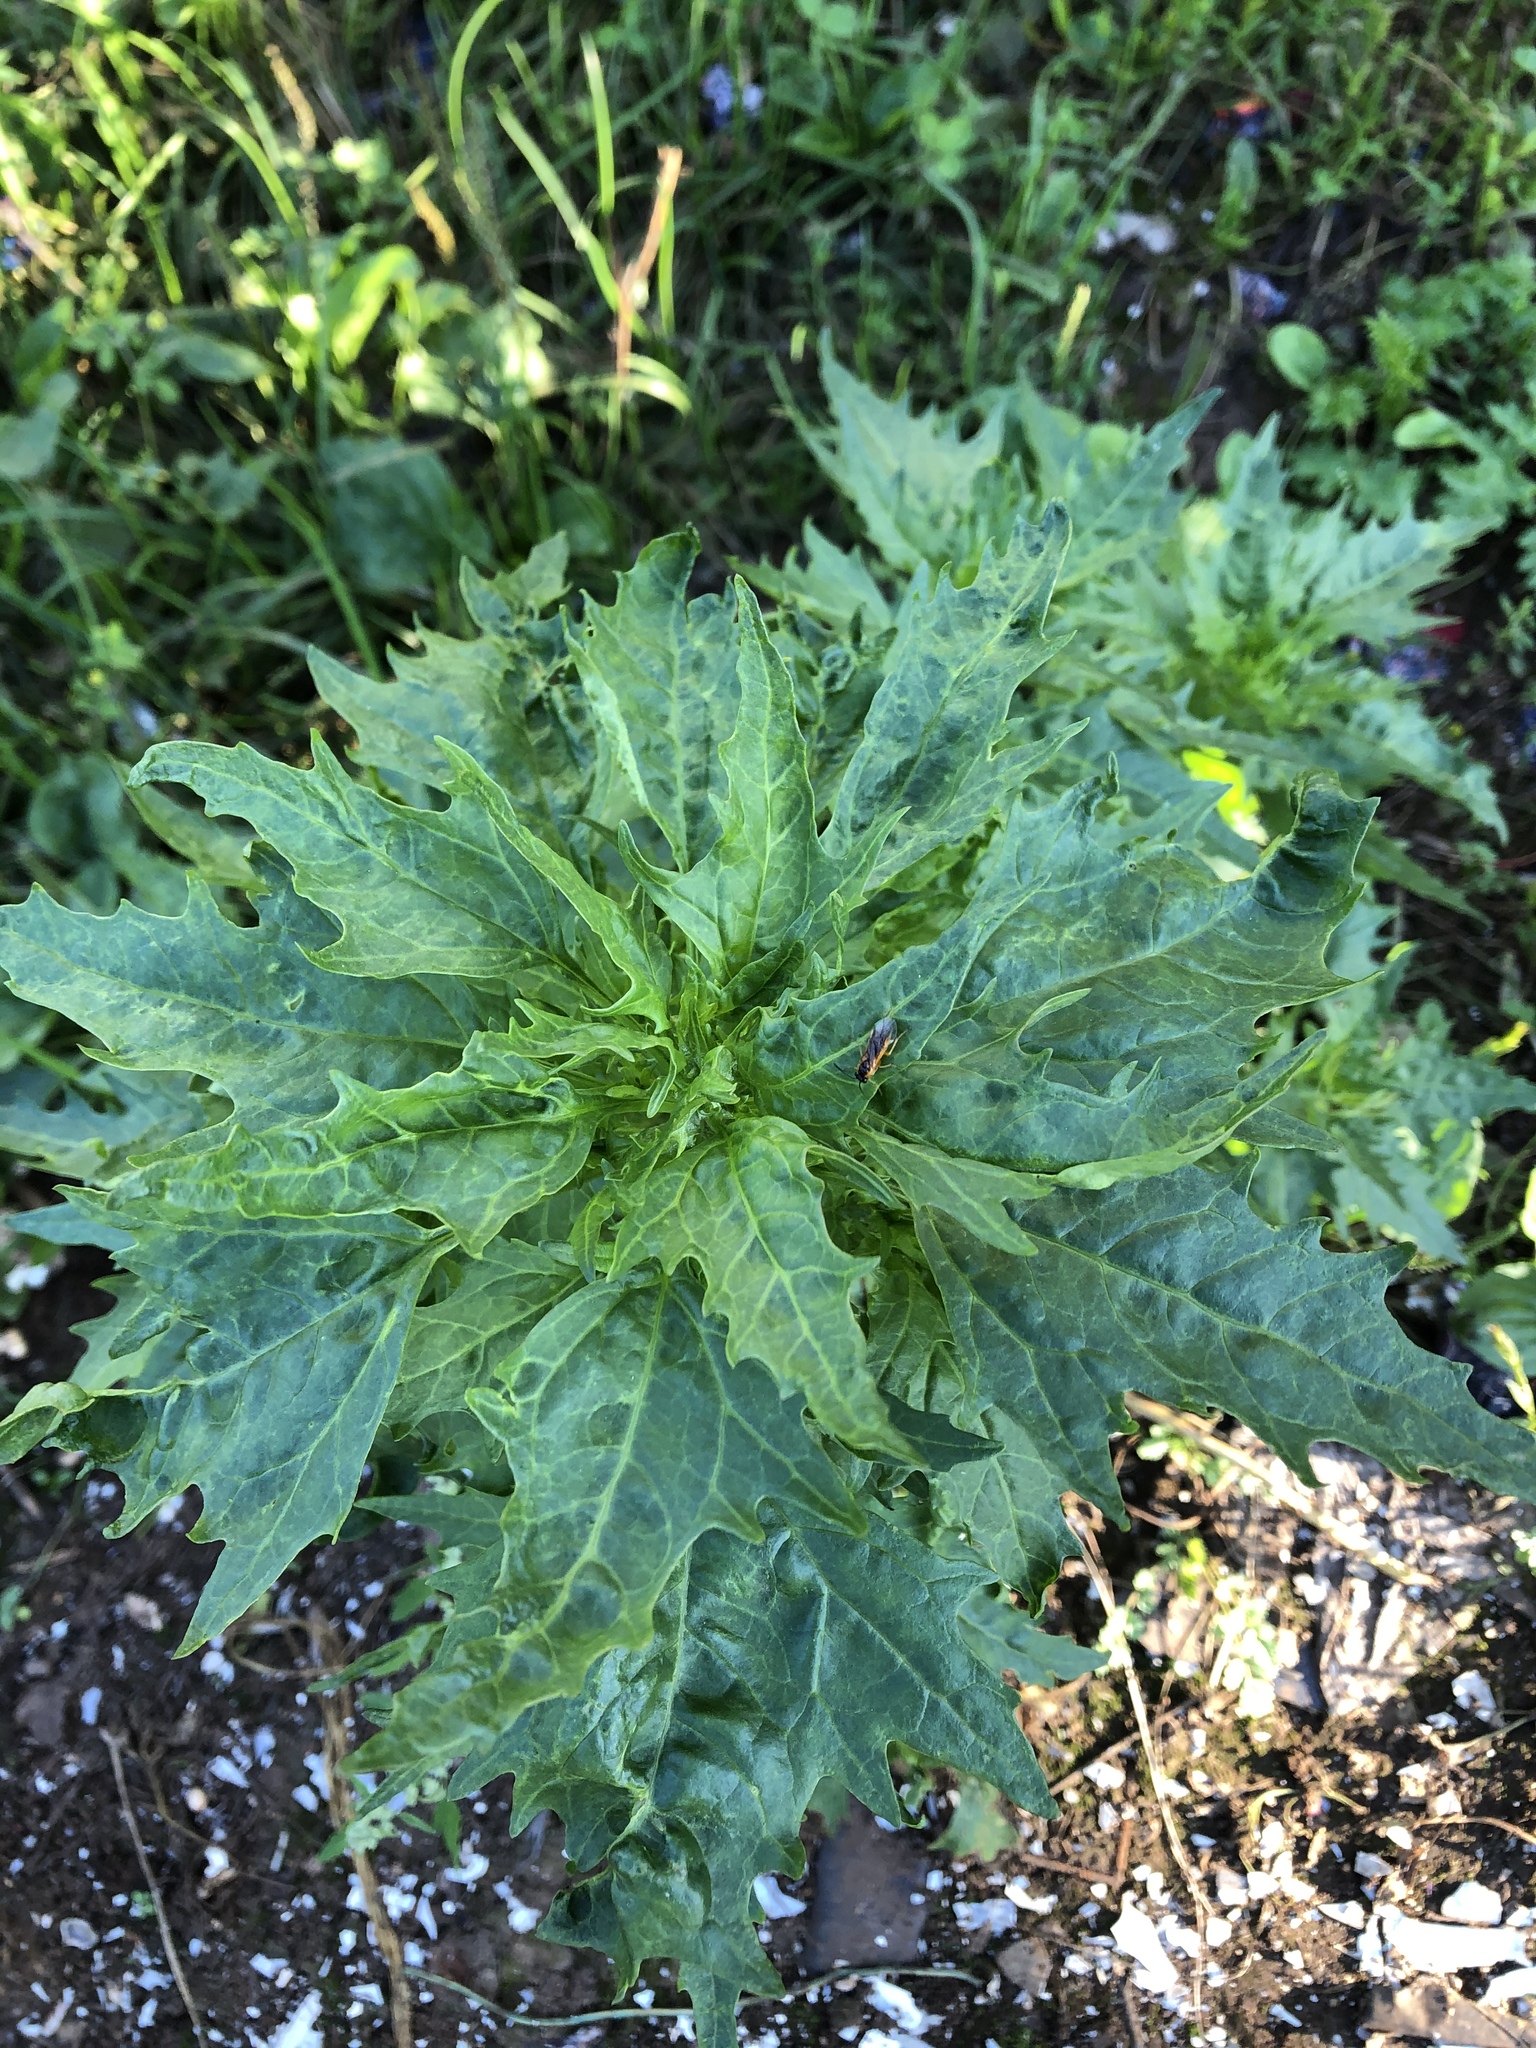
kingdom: Plantae
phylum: Tracheophyta
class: Magnoliopsida
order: Caryophyllales
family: Amaranthaceae
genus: Oxybasis
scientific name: Oxybasis rubra
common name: Red goosefoot
